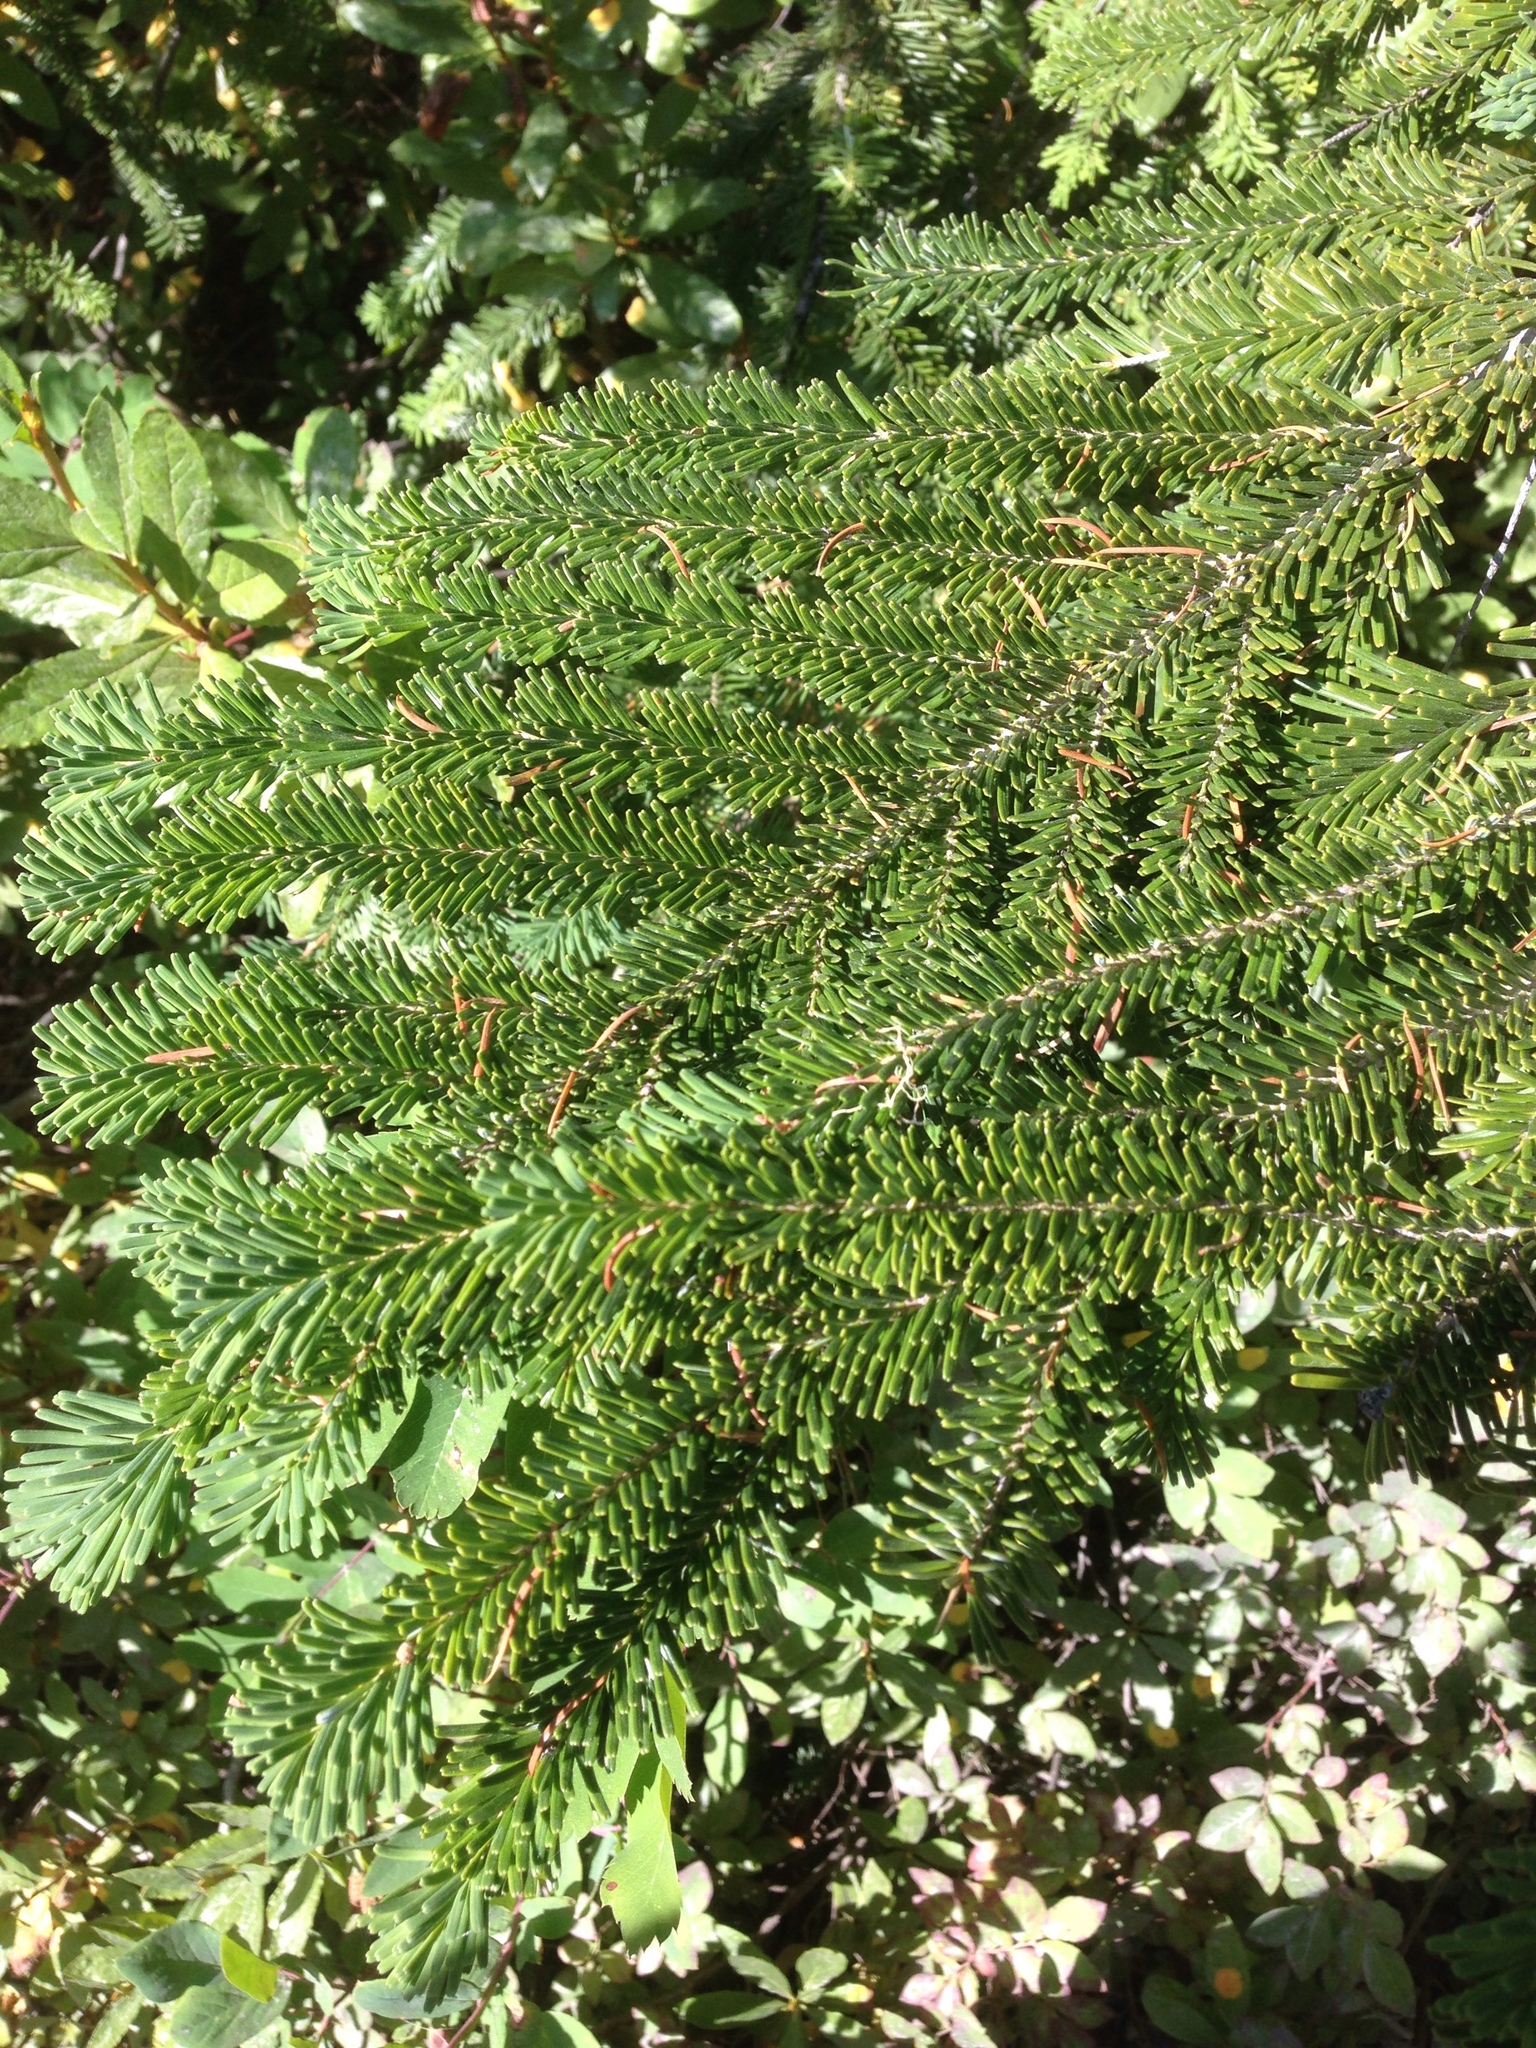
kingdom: Plantae
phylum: Tracheophyta
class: Pinopsida
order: Pinales
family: Pinaceae
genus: Abies
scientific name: Abies amabilis
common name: Pacific silver fir
